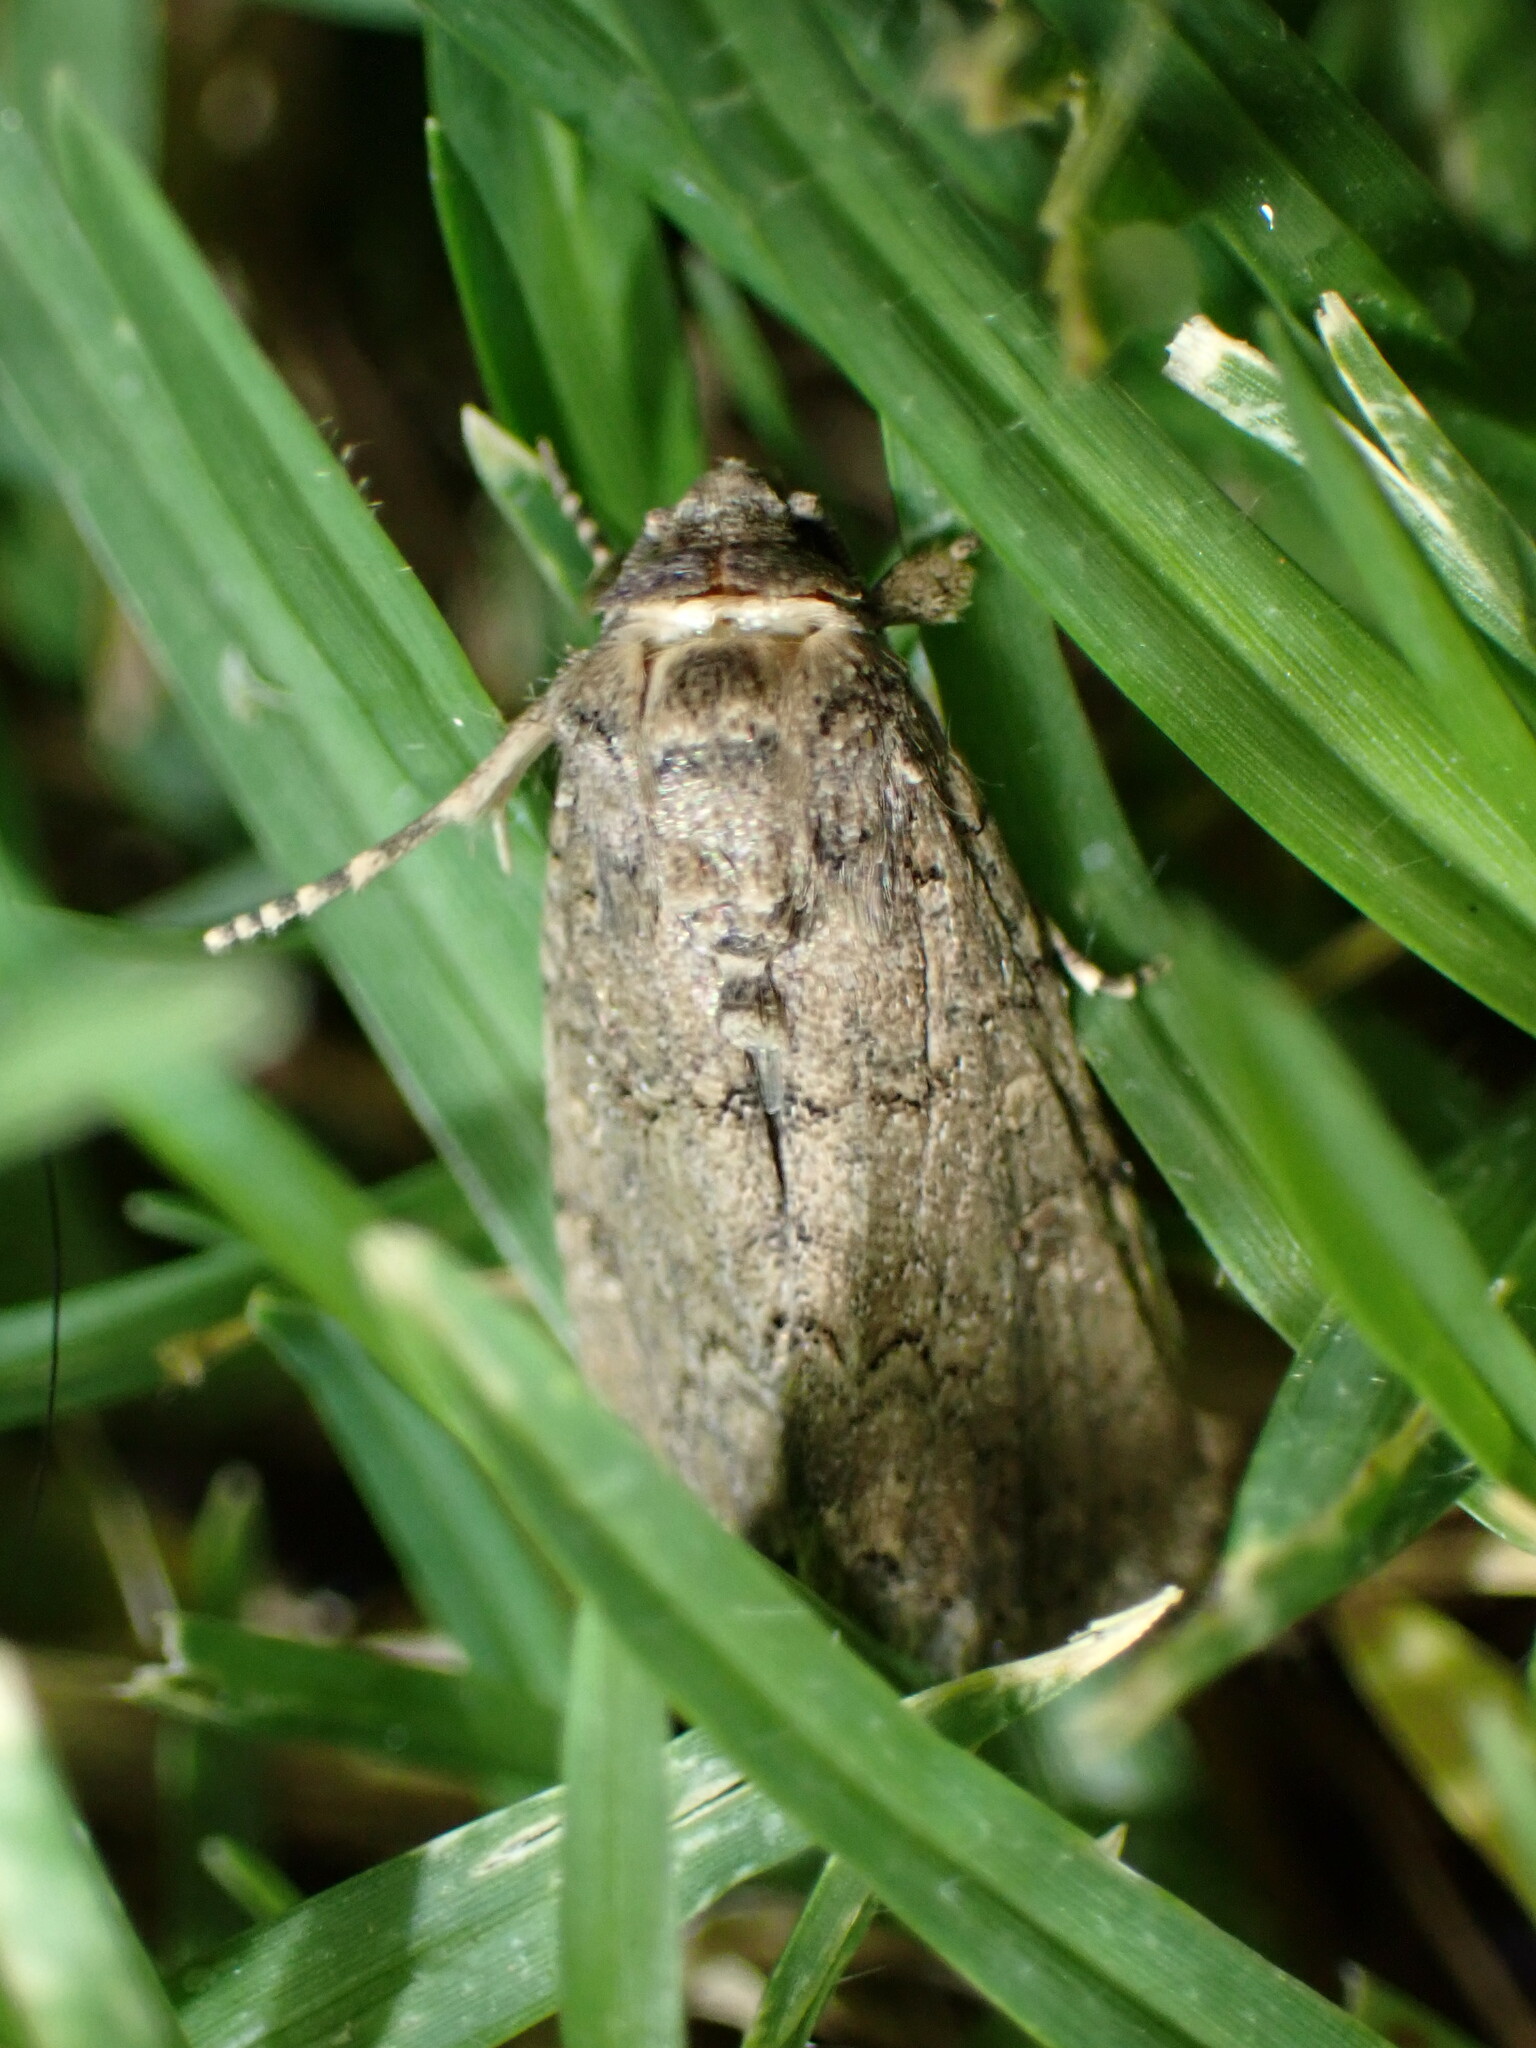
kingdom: Animalia
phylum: Arthropoda
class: Insecta
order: Lepidoptera
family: Noctuidae
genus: Spodoptera
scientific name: Spodoptera cilium
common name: Dark mottled willow
